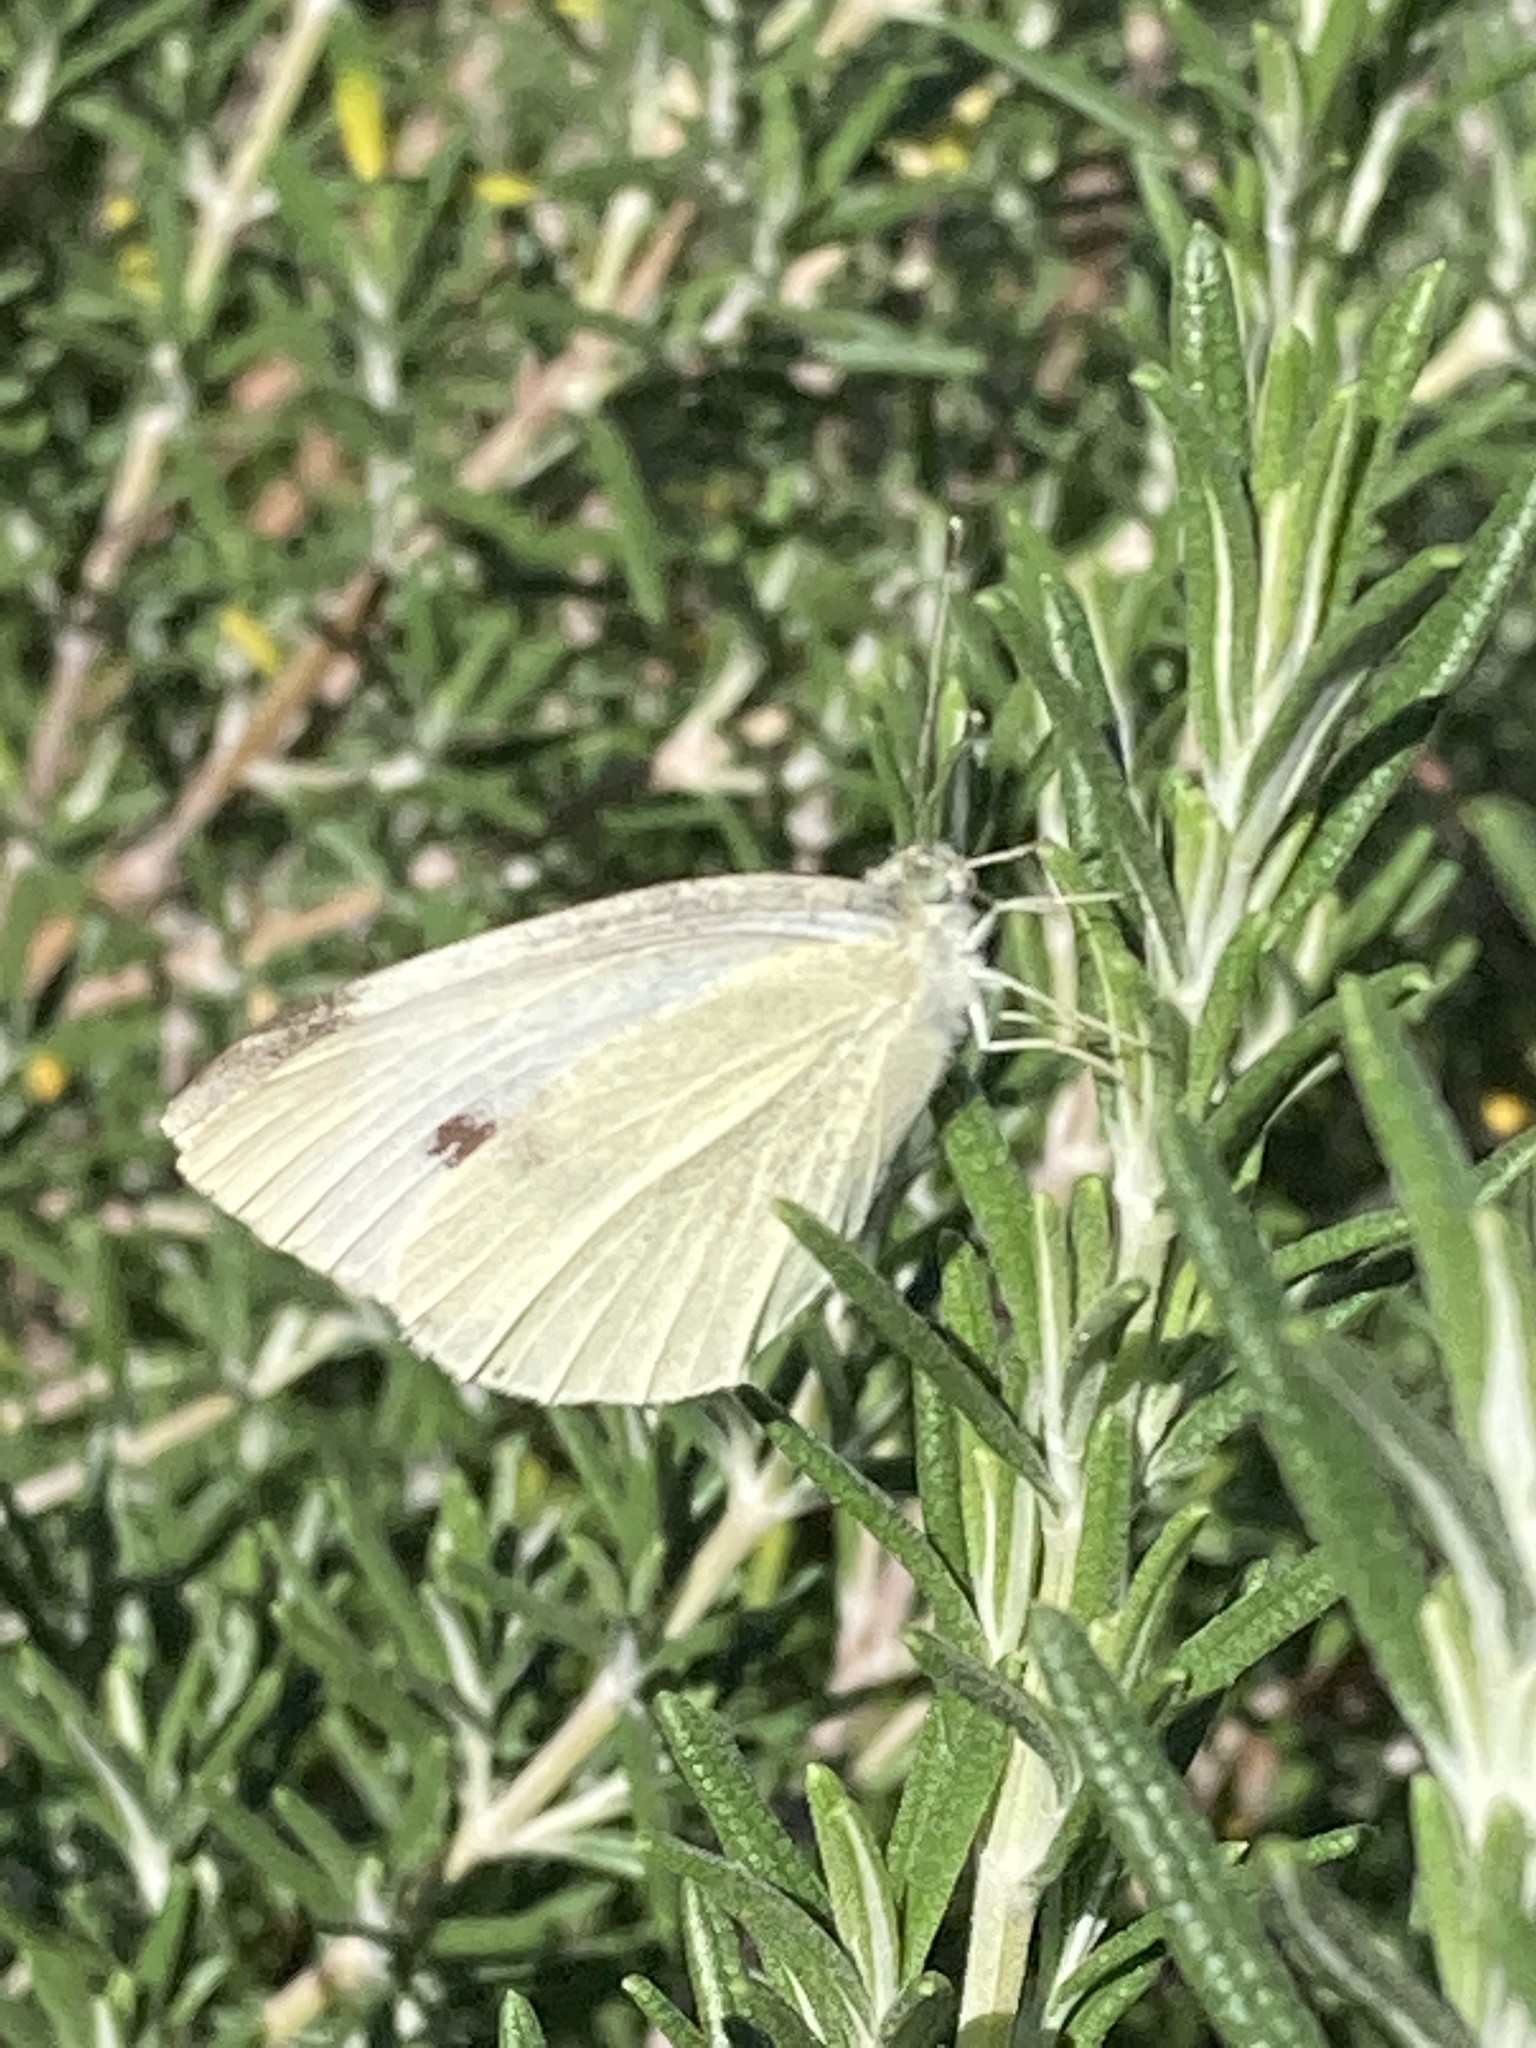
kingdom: Animalia
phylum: Arthropoda
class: Insecta
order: Lepidoptera
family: Pieridae
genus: Pieris
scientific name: Pieris rapae
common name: Small white
